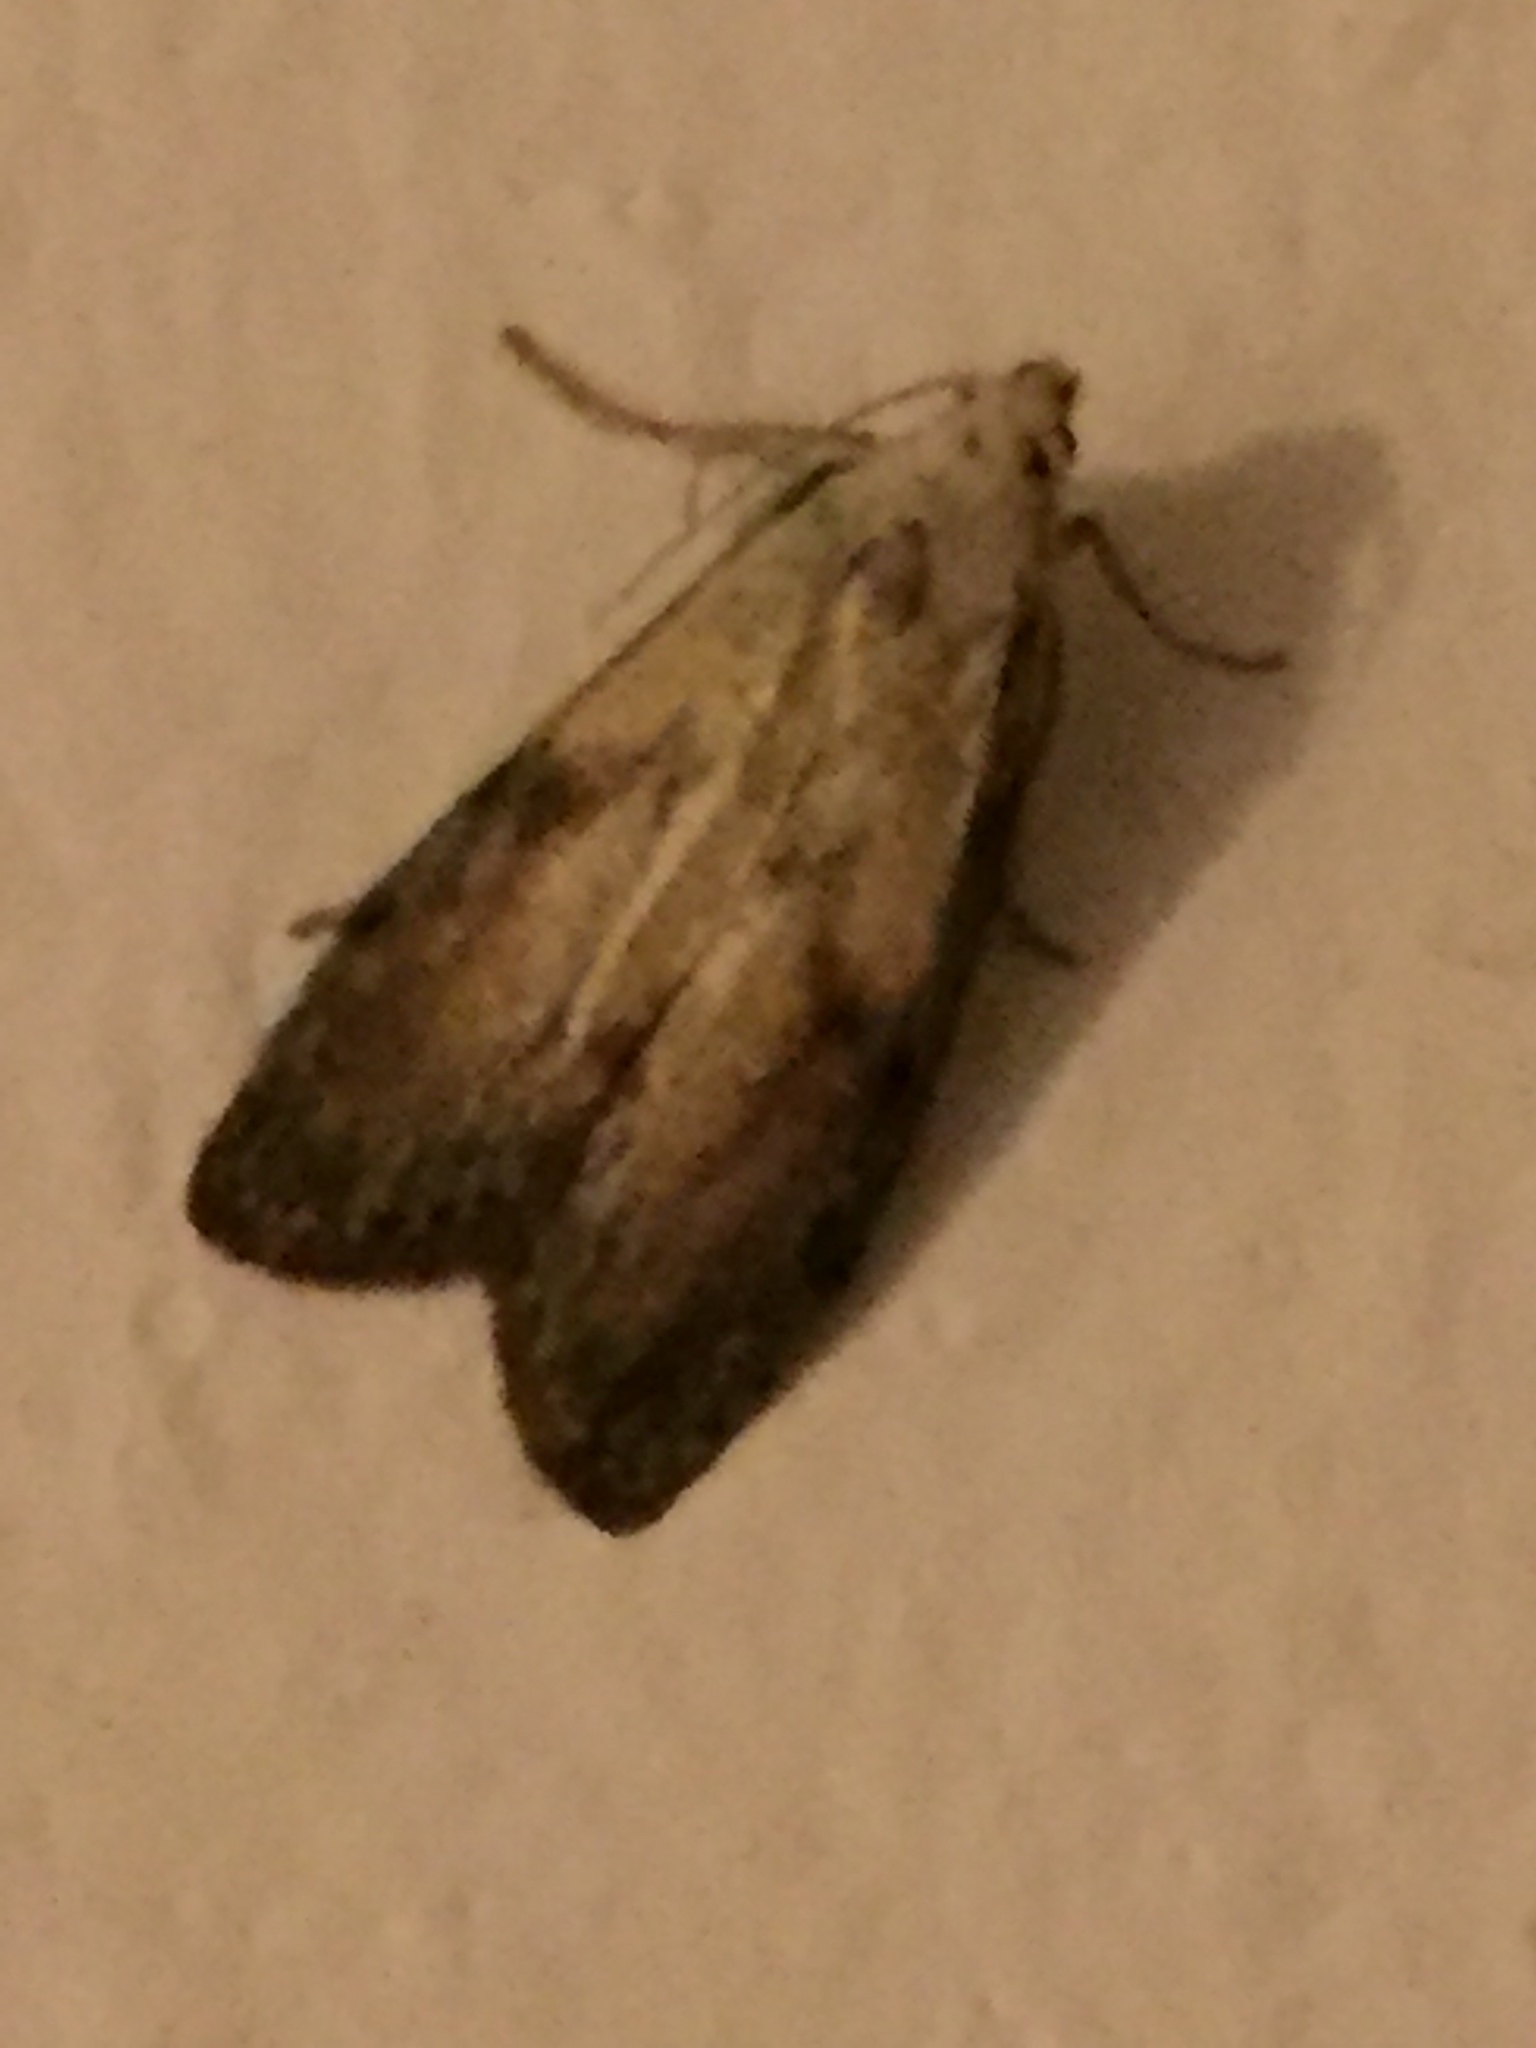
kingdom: Animalia
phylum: Arthropoda
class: Insecta
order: Lepidoptera
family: Pyralidae
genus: Aphomia
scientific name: Aphomia sociella
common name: Bee moth
